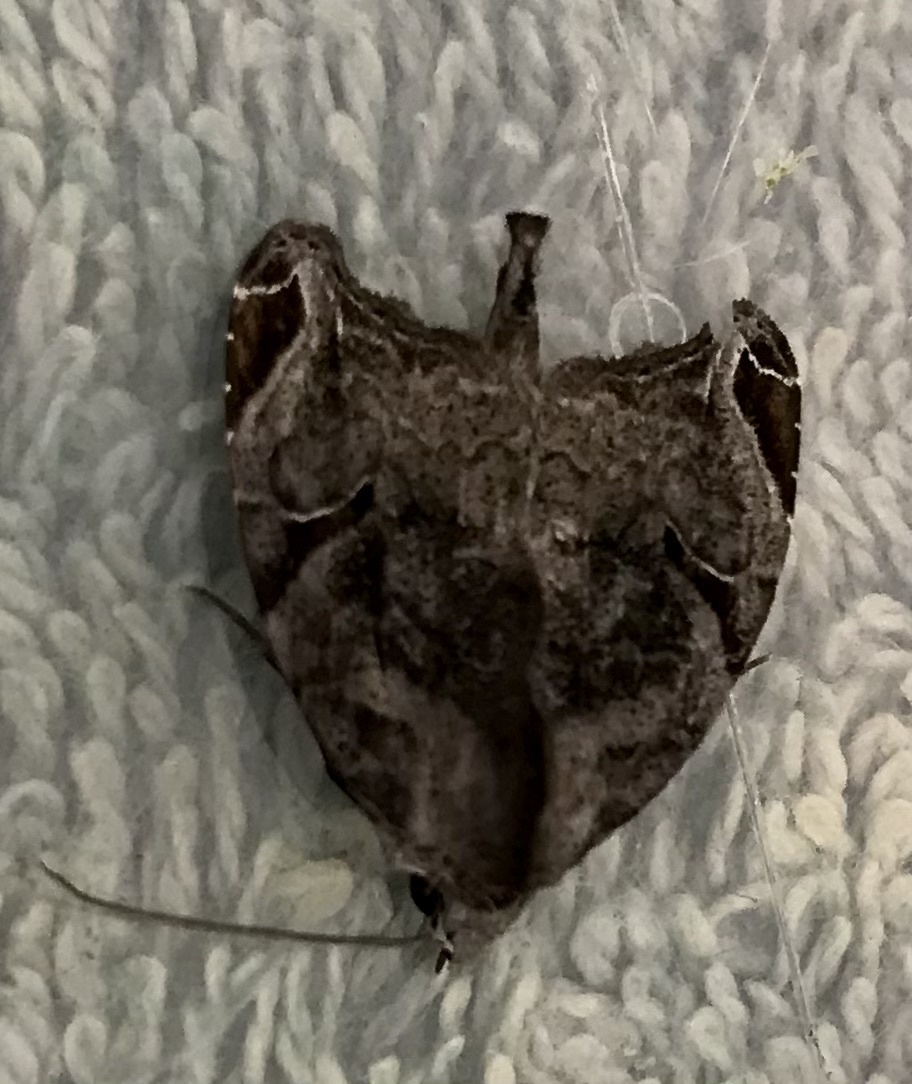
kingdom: Animalia
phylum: Arthropoda
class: Insecta
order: Lepidoptera
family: Noctuidae
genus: Androlymnia
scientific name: Androlymnia torsivena
